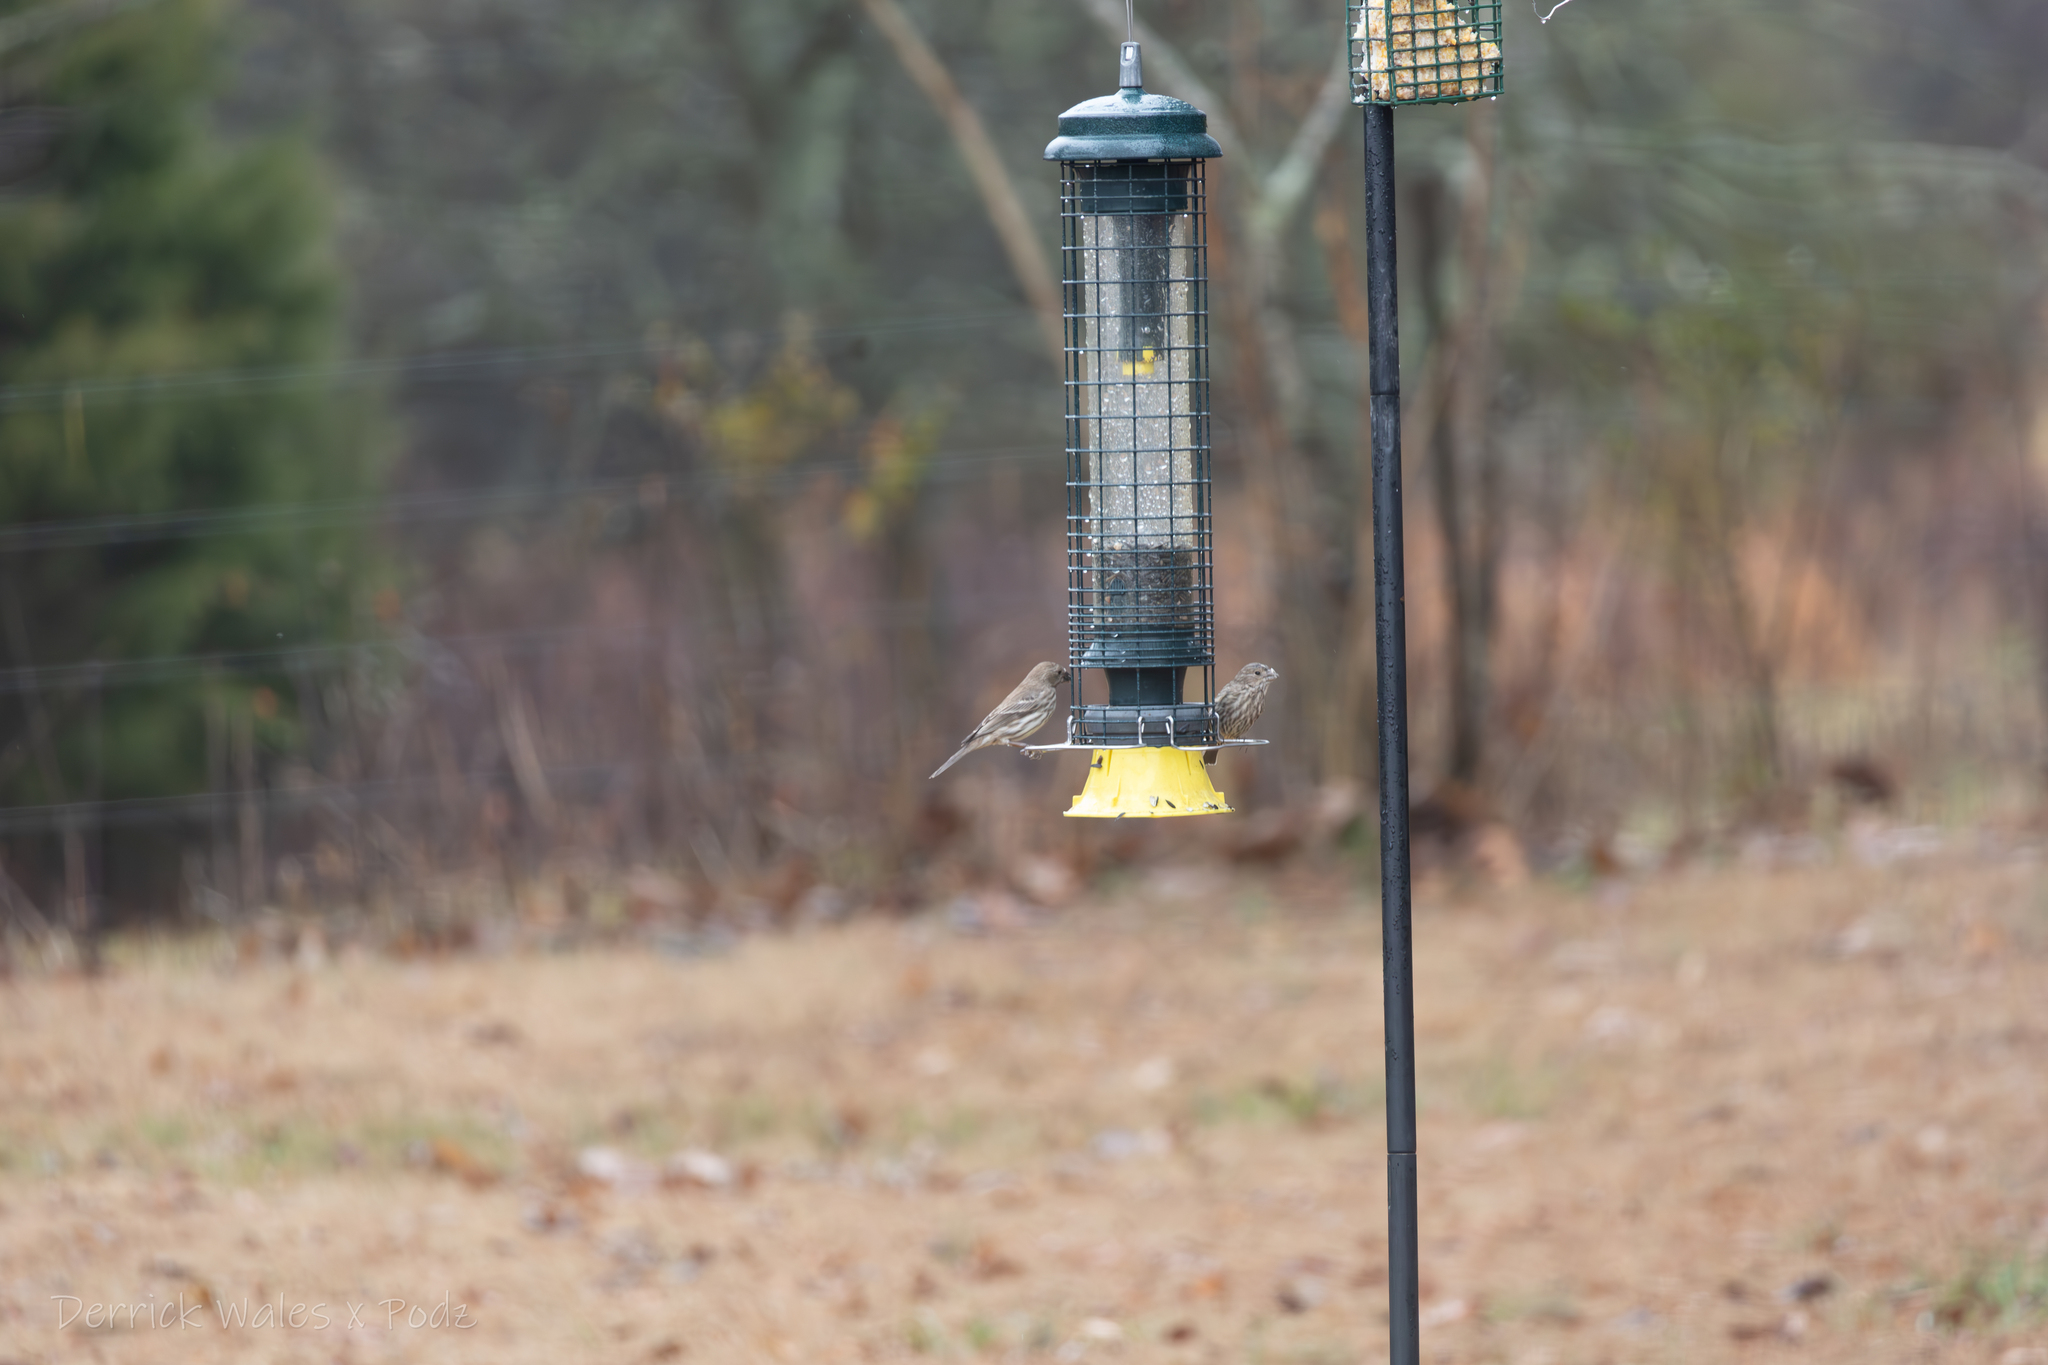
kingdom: Animalia
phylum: Chordata
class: Aves
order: Passeriformes
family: Fringillidae
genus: Haemorhous
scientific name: Haemorhous mexicanus
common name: House finch
